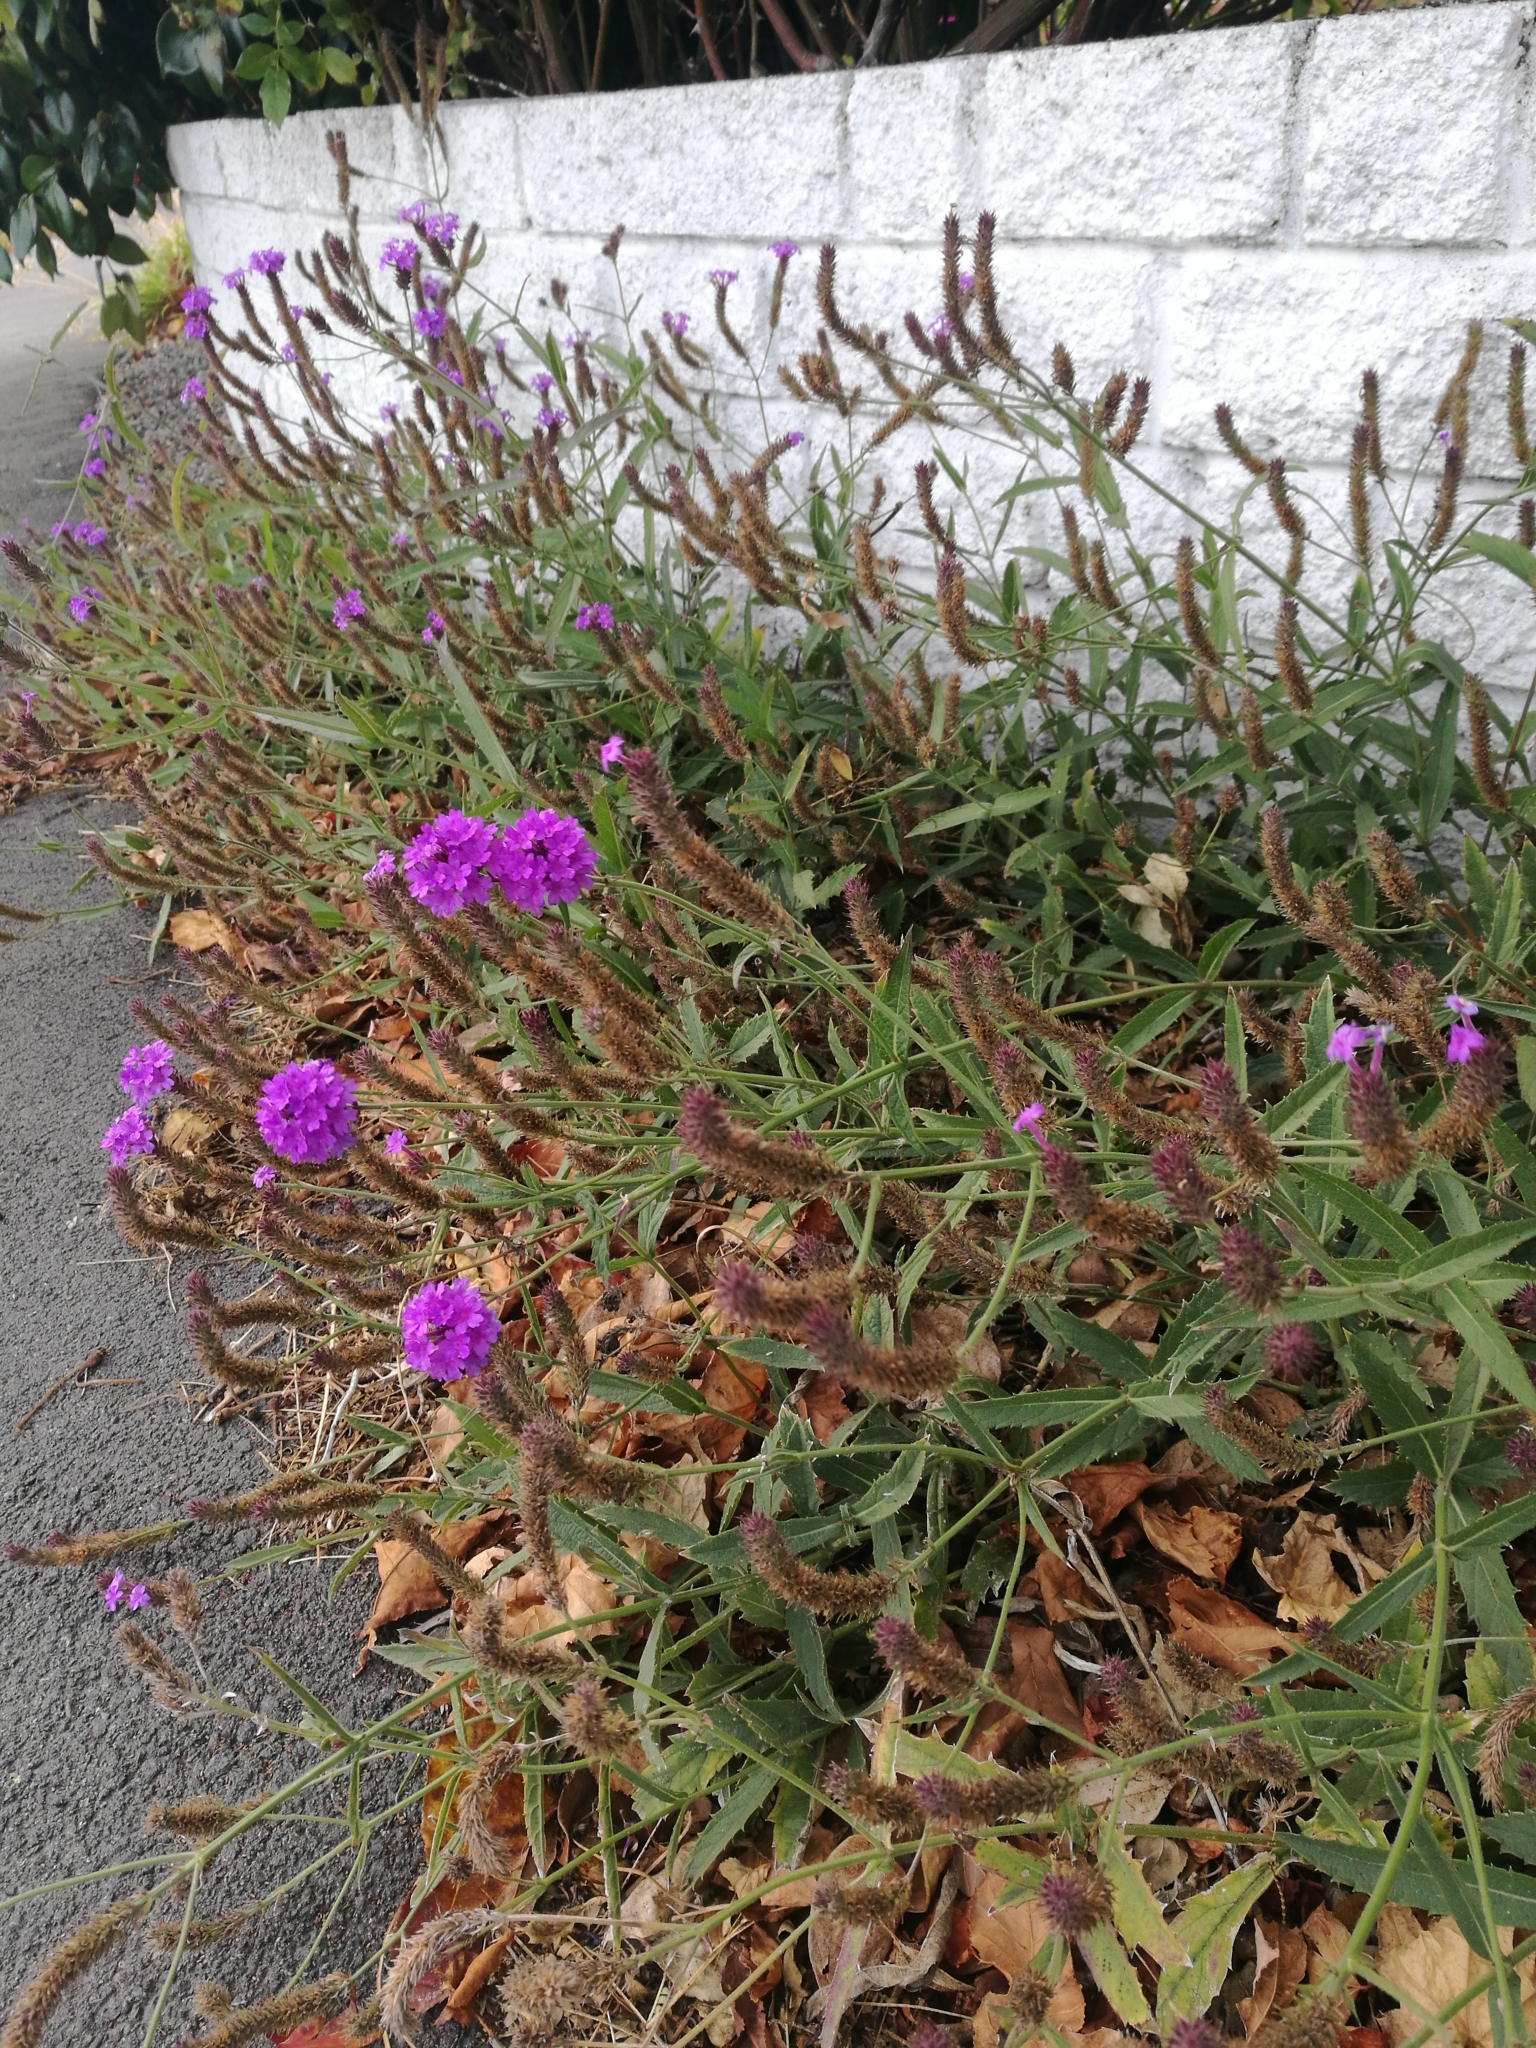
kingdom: Plantae
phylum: Tracheophyta
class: Magnoliopsida
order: Lamiales
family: Verbenaceae
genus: Verbena
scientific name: Verbena rigida
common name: Slender vervain
